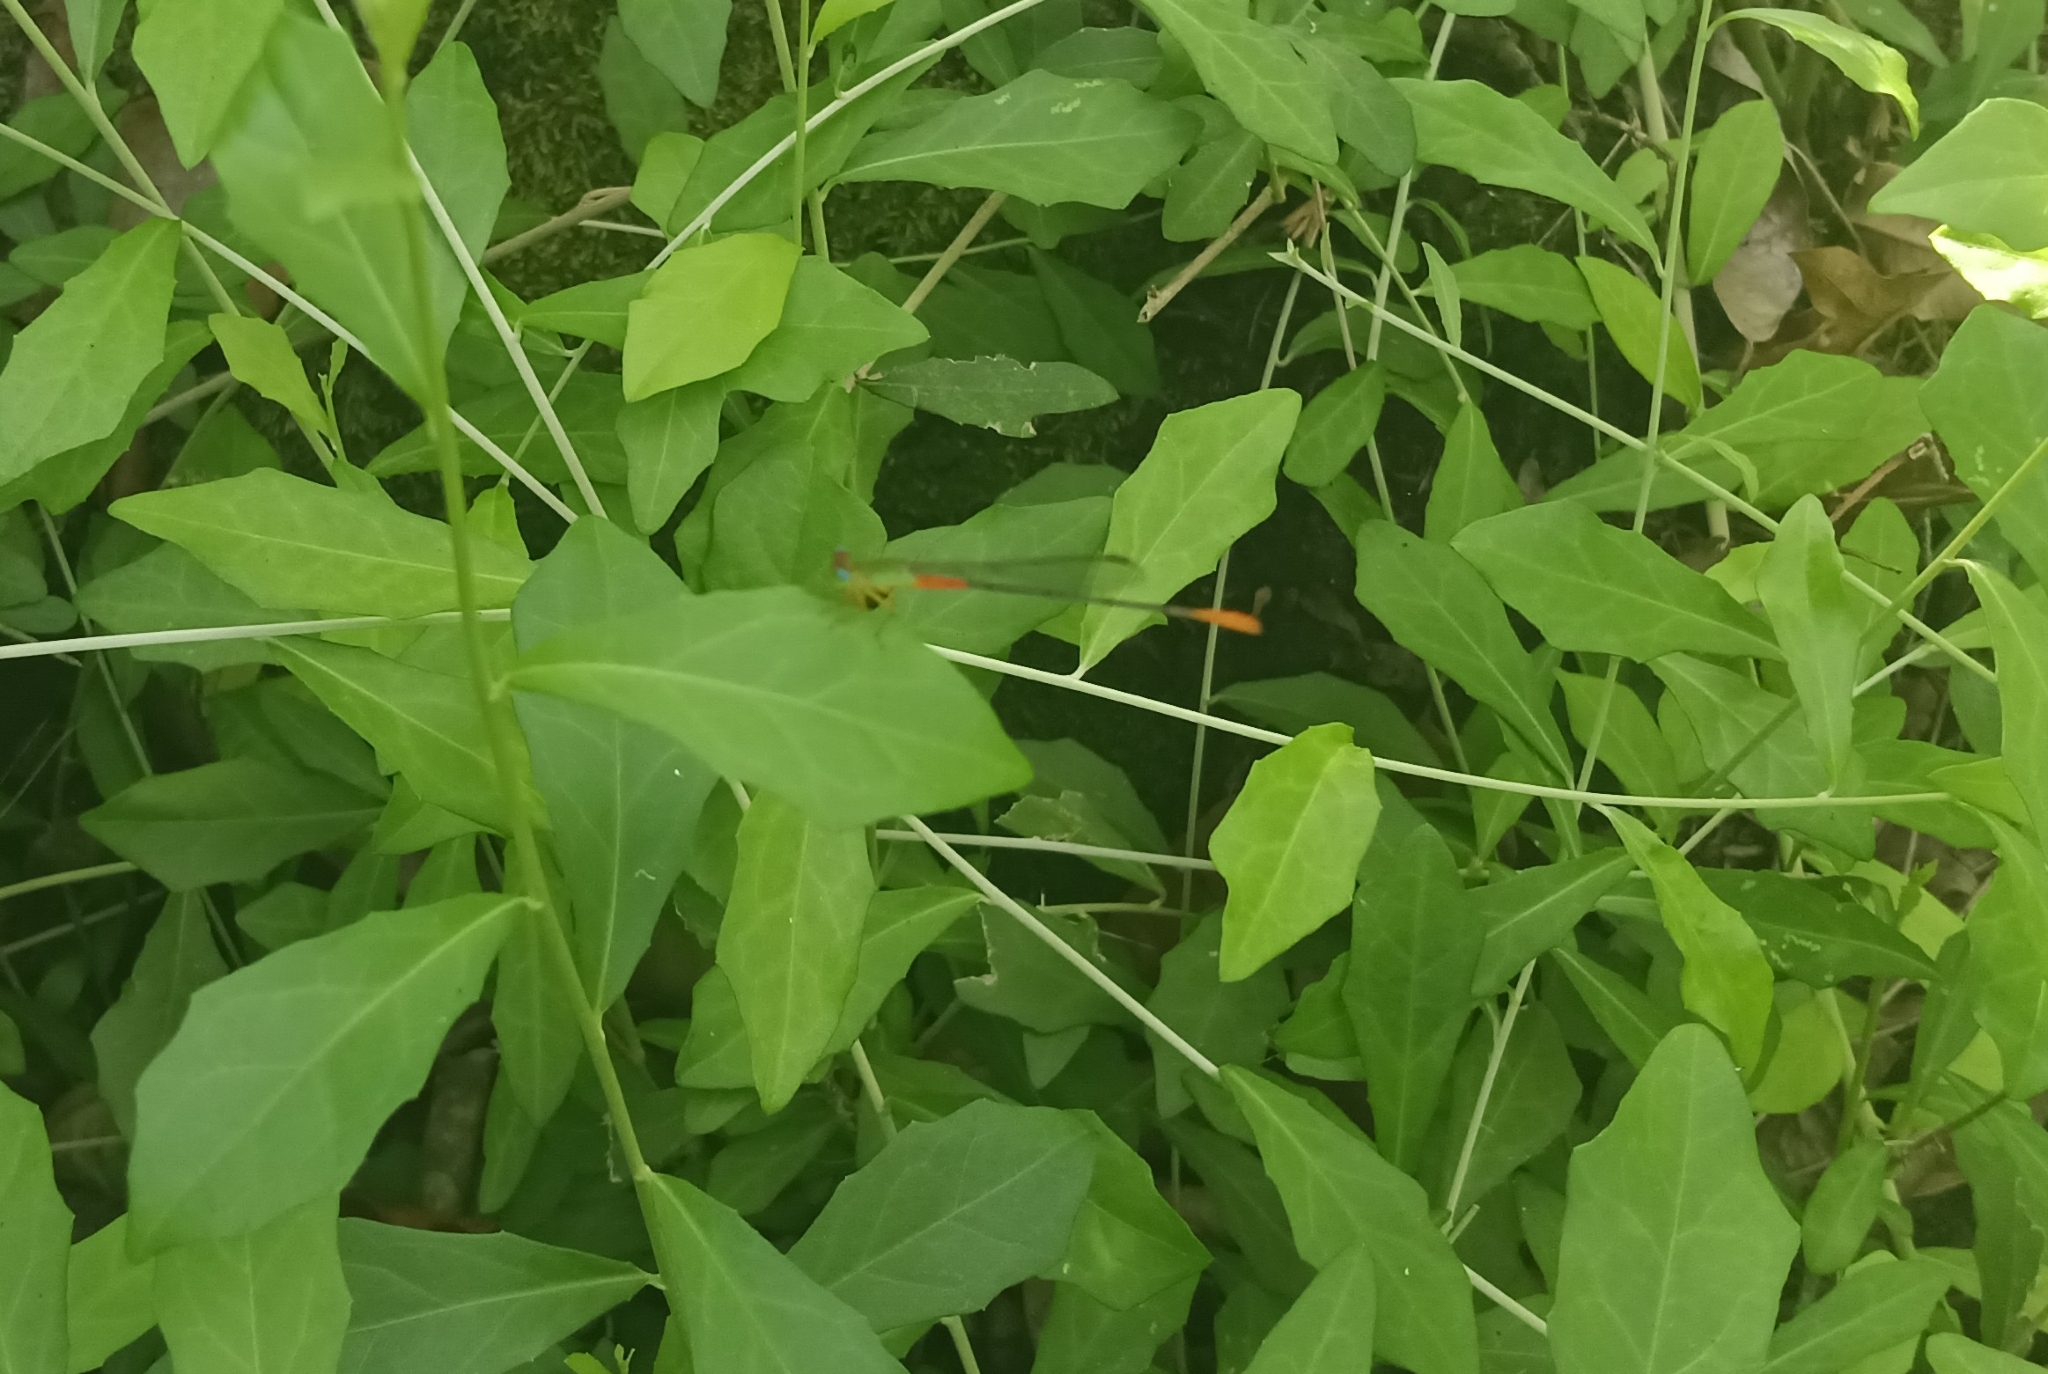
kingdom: Animalia
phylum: Arthropoda
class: Insecta
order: Odonata
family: Coenagrionidae
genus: Ceriagrion
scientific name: Ceriagrion cerinorubellum
